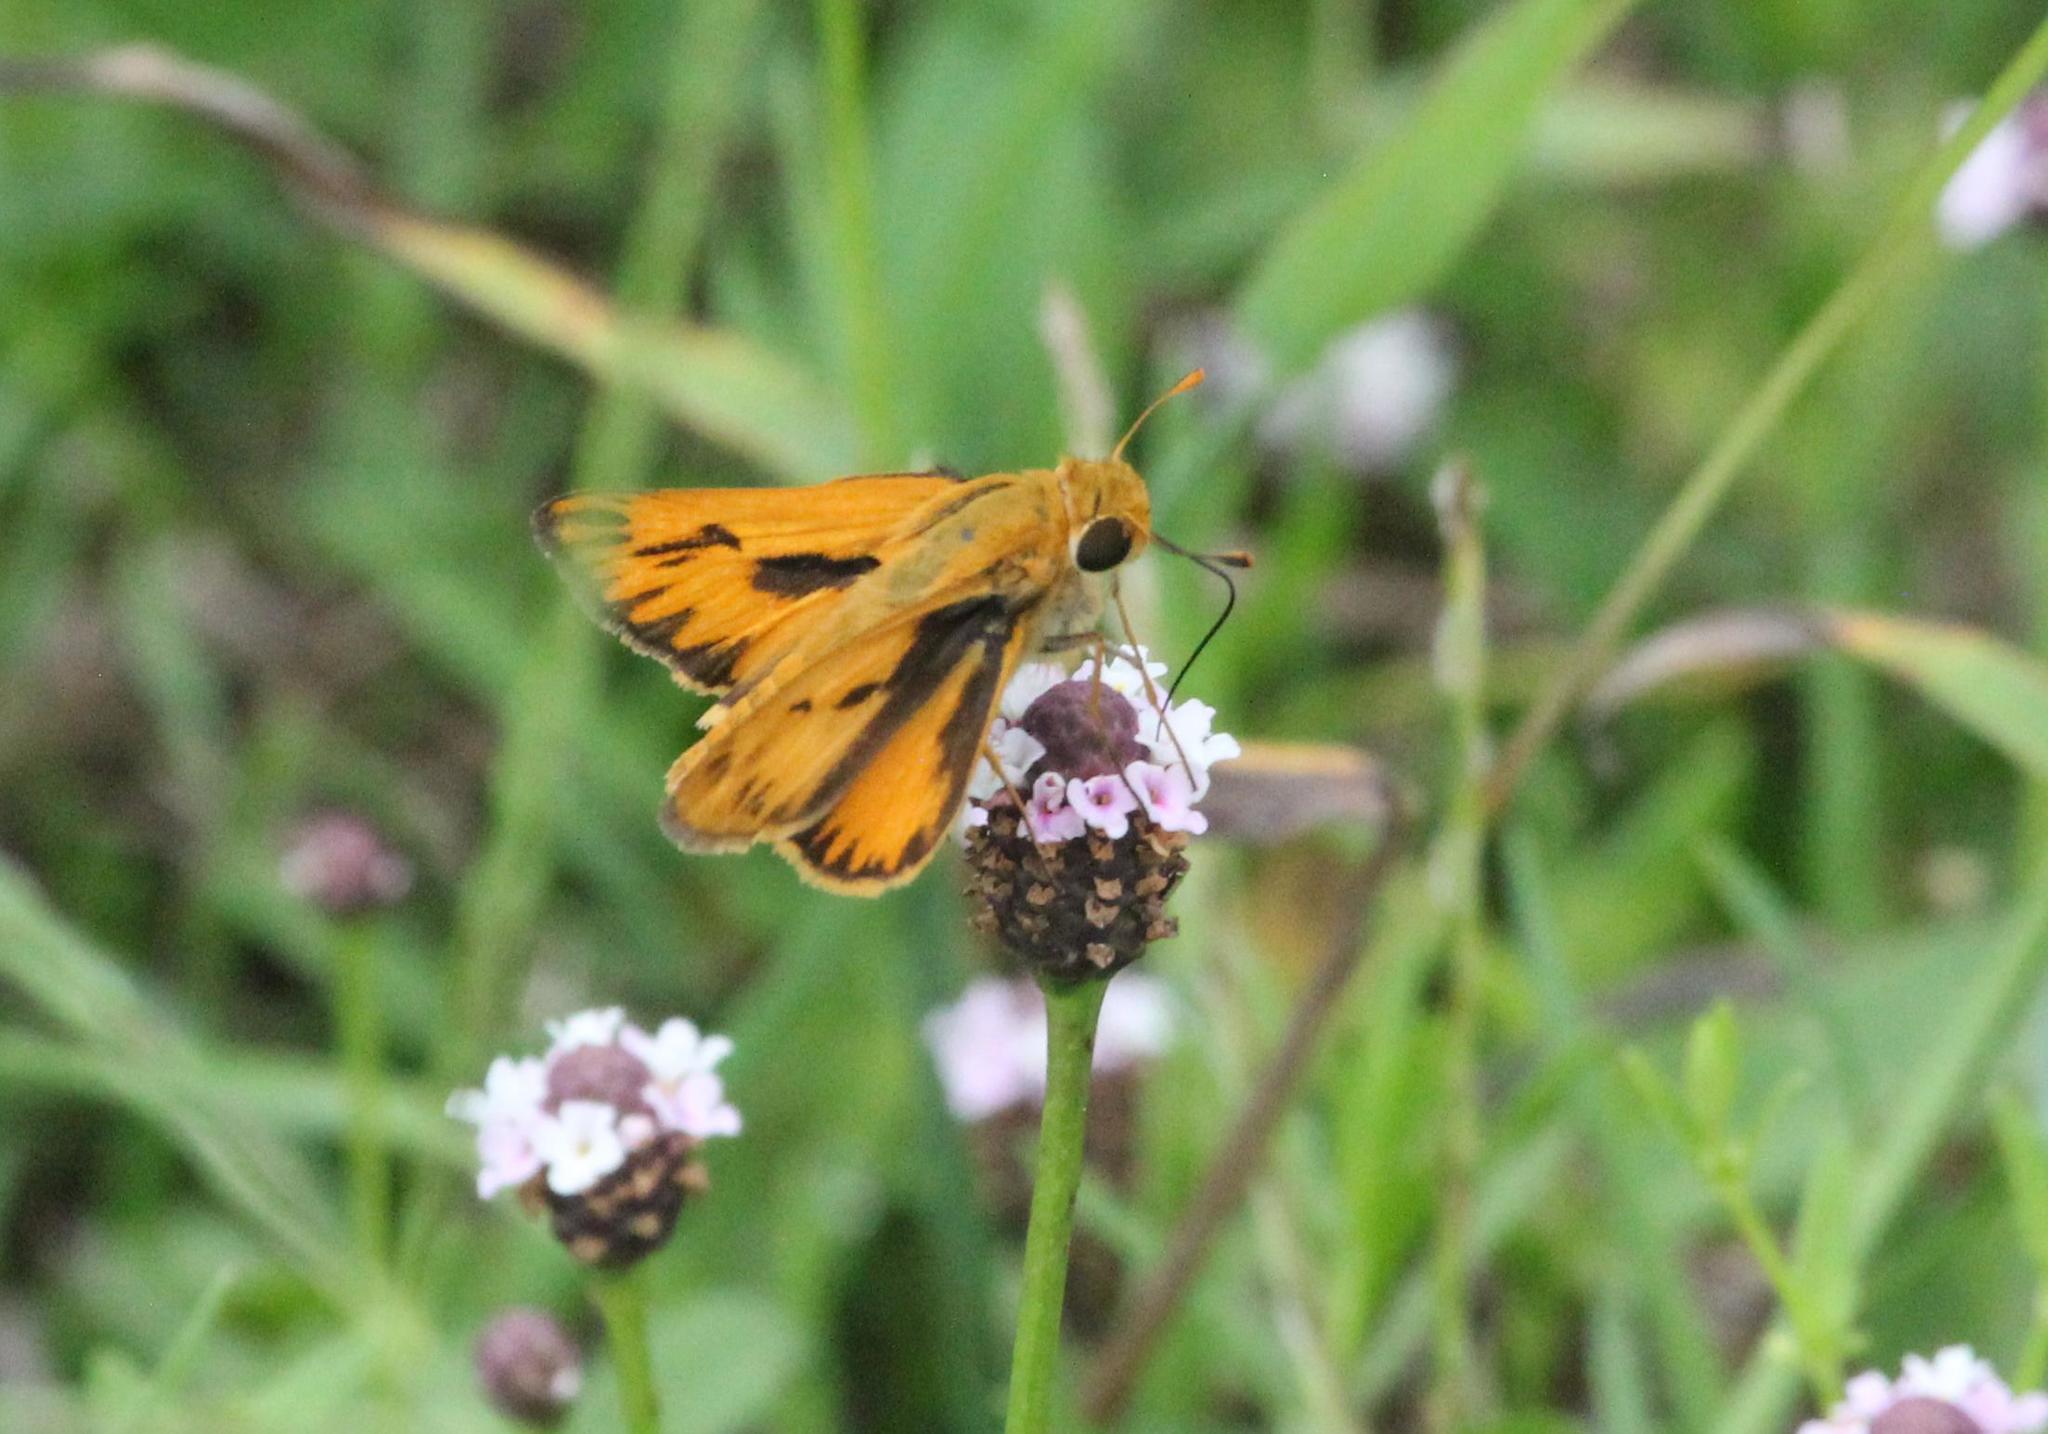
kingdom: Animalia
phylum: Arthropoda
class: Insecta
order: Lepidoptera
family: Hesperiidae
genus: Hylephila
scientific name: Hylephila phyleus
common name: Fiery skipper
